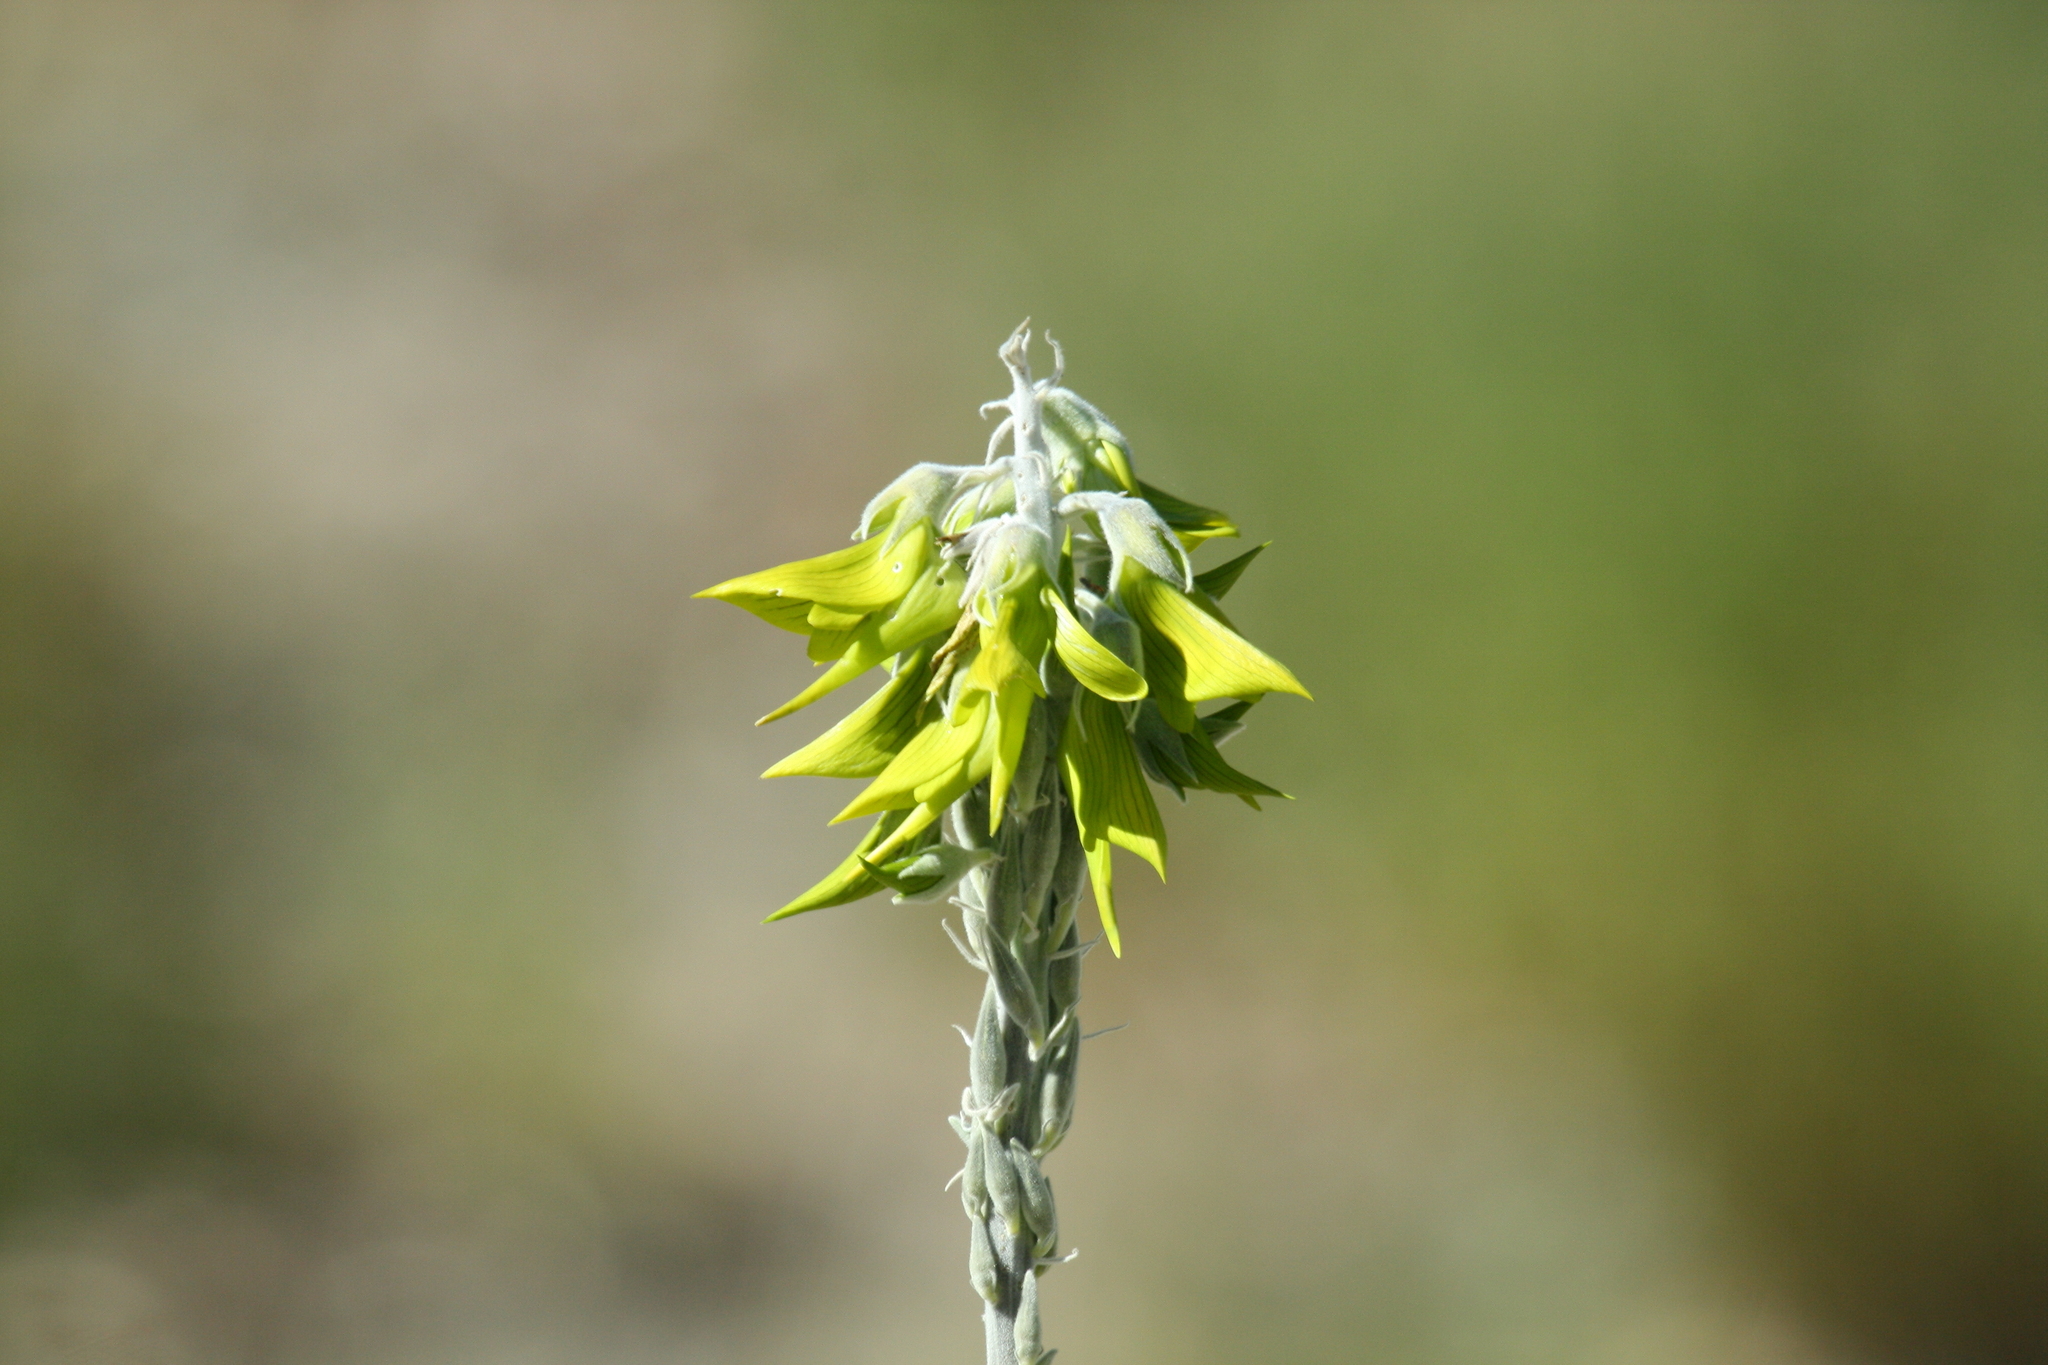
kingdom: Plantae
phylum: Tracheophyta
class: Magnoliopsida
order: Fabales
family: Fabaceae
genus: Crotalaria
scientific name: Crotalaria cunninghamii
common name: Birdflower rattlepod
